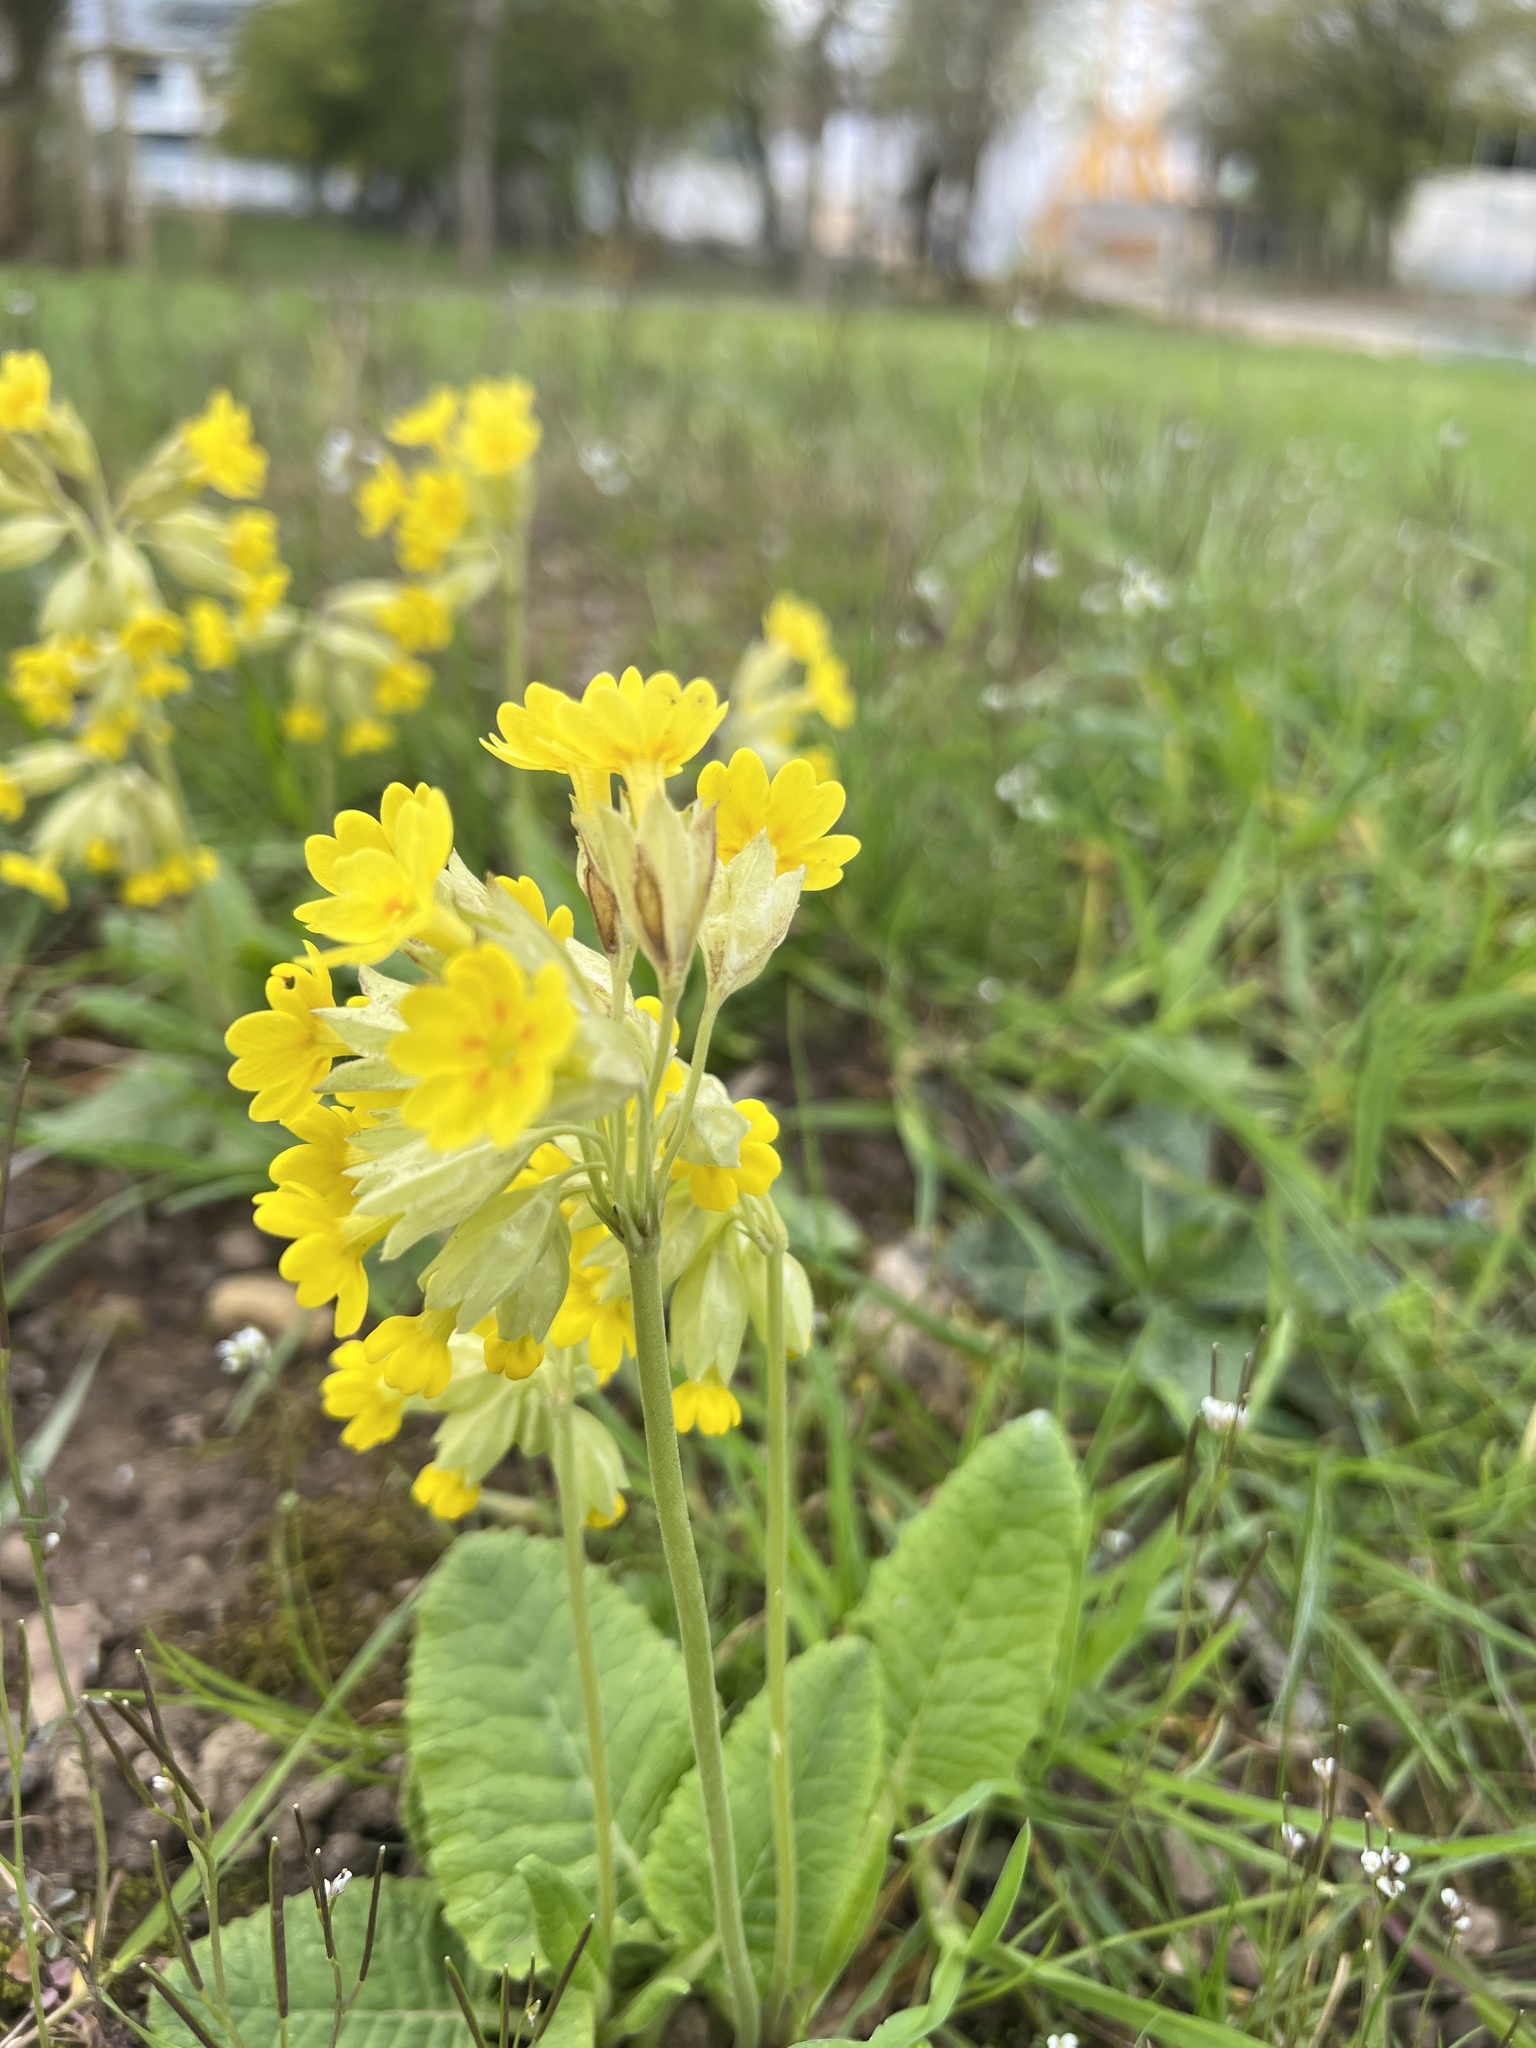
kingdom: Plantae
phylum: Tracheophyta
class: Magnoliopsida
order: Ericales
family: Primulaceae
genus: Primula
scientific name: Primula veris
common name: Cowslip
